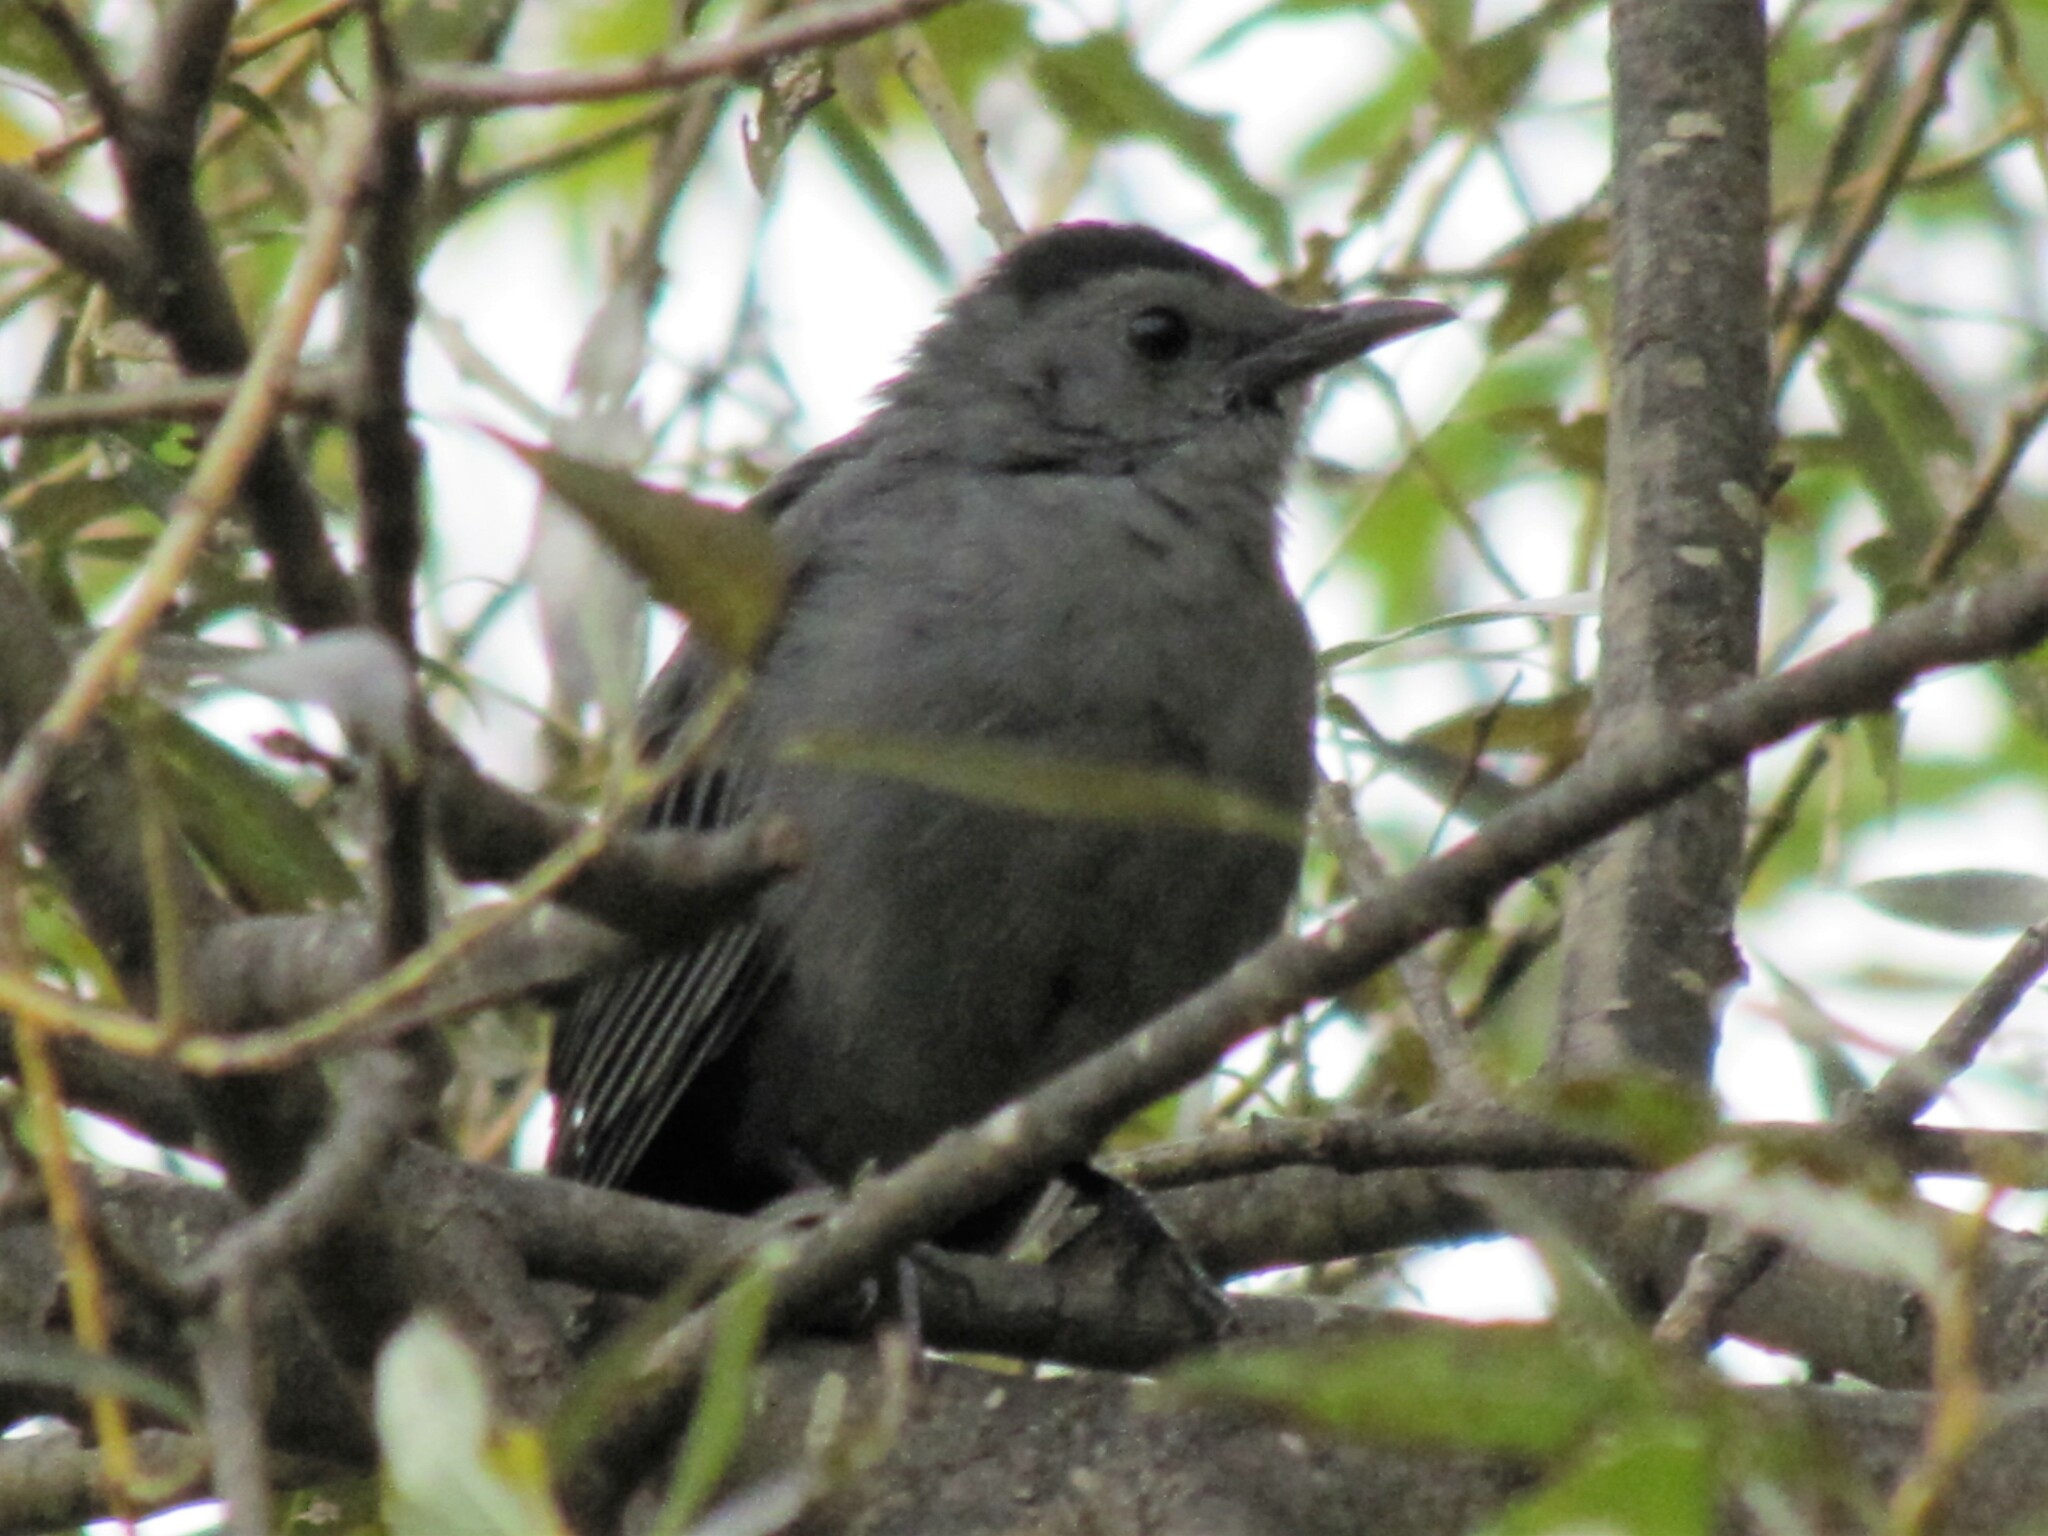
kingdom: Animalia
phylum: Chordata
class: Aves
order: Passeriformes
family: Mimidae
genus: Dumetella
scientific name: Dumetella carolinensis
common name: Gray catbird
